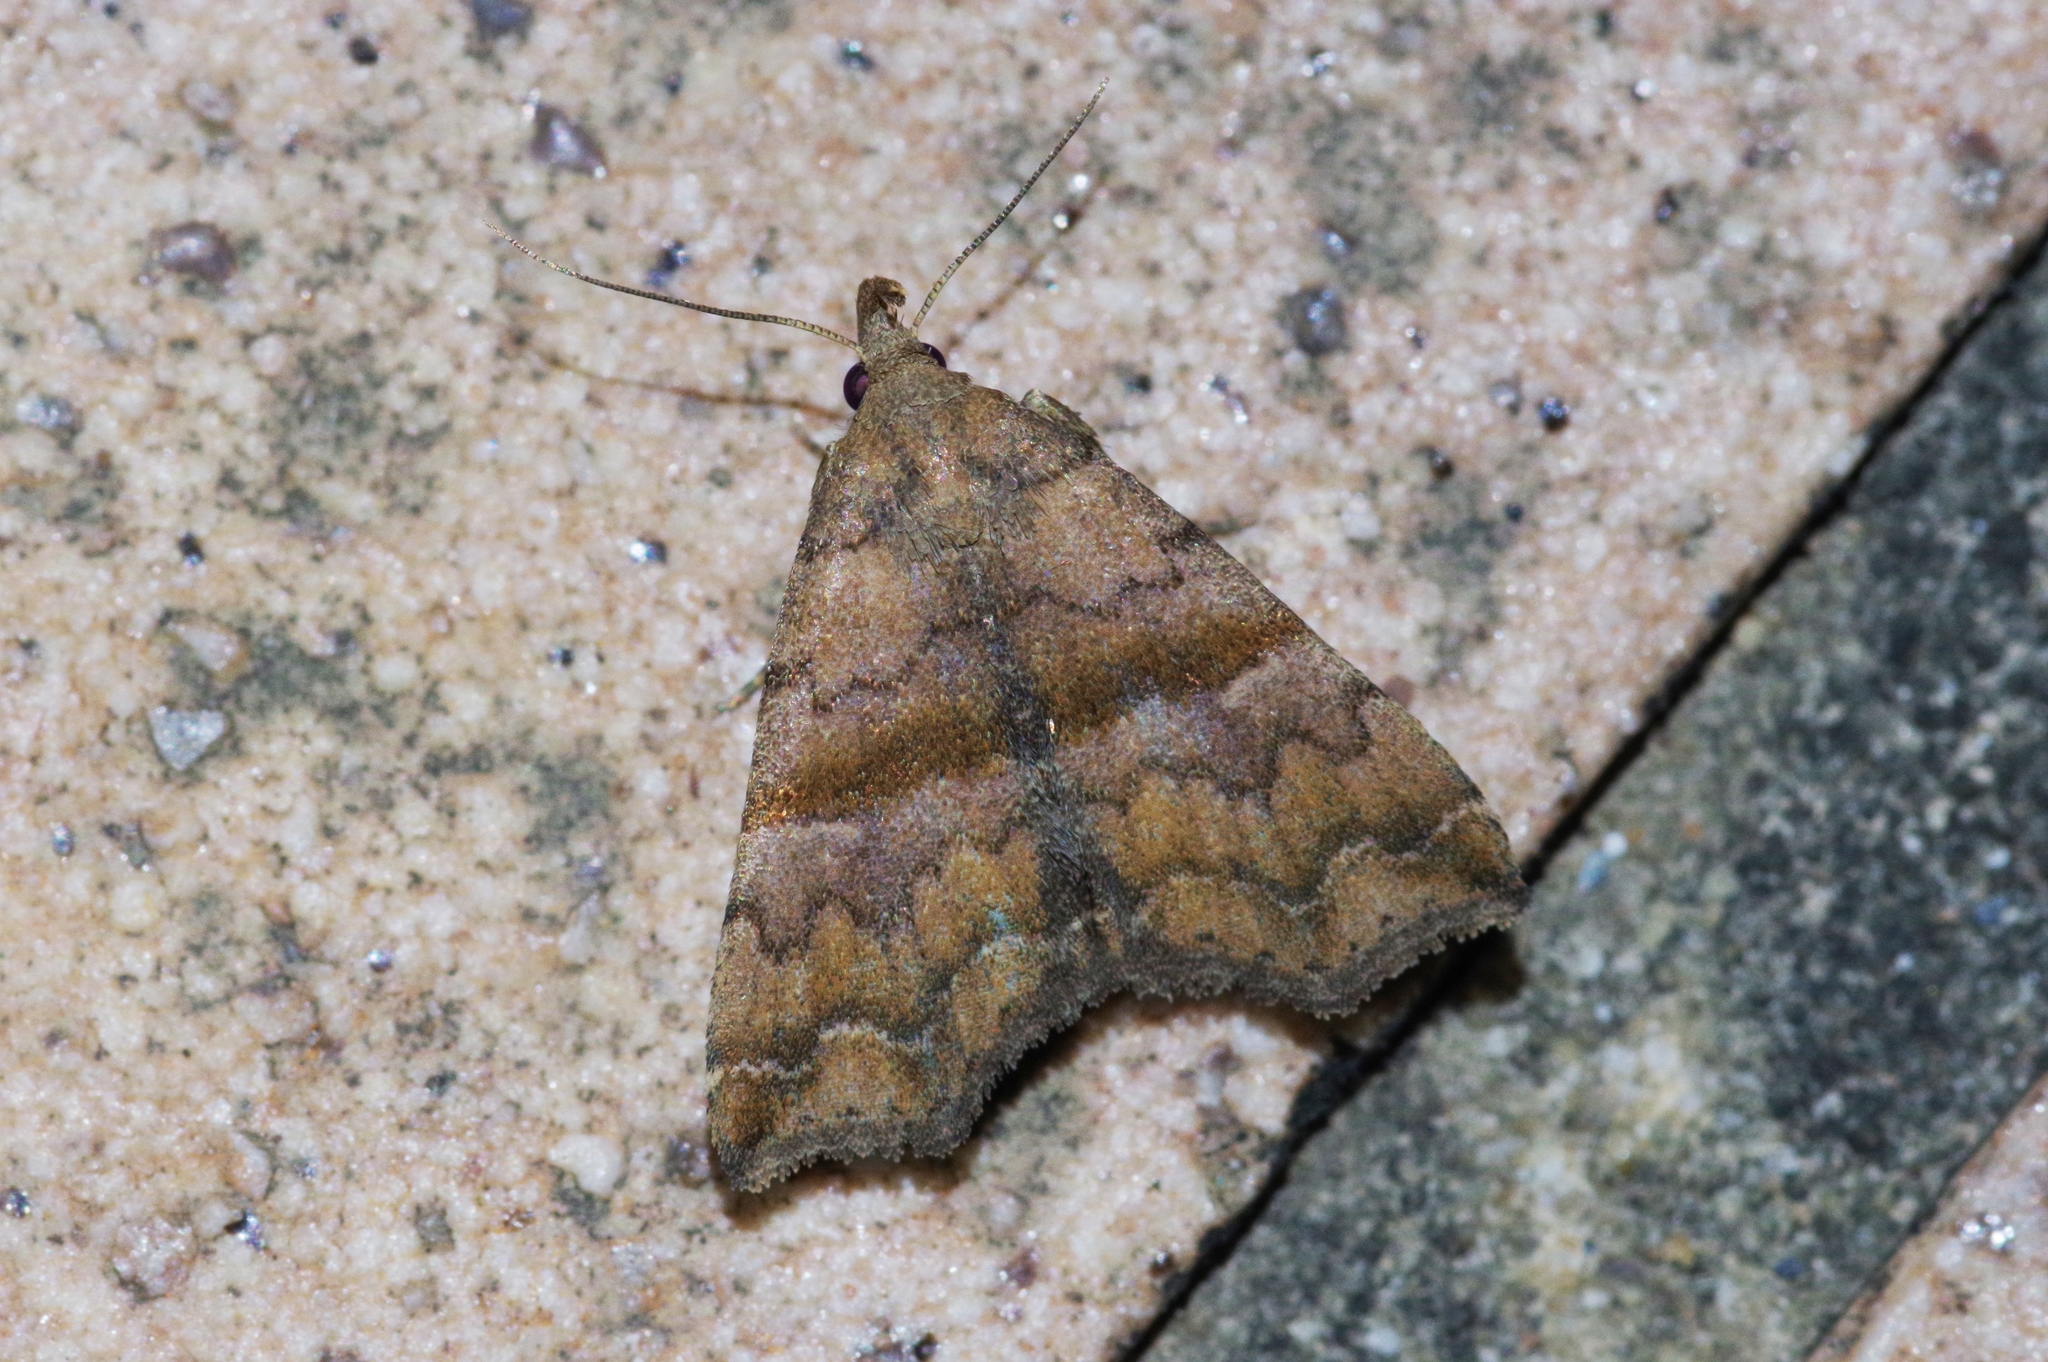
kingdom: Animalia
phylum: Arthropoda
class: Insecta
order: Lepidoptera
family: Erebidae
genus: Polypogon
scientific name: Polypogon Hipoepa fractalis
